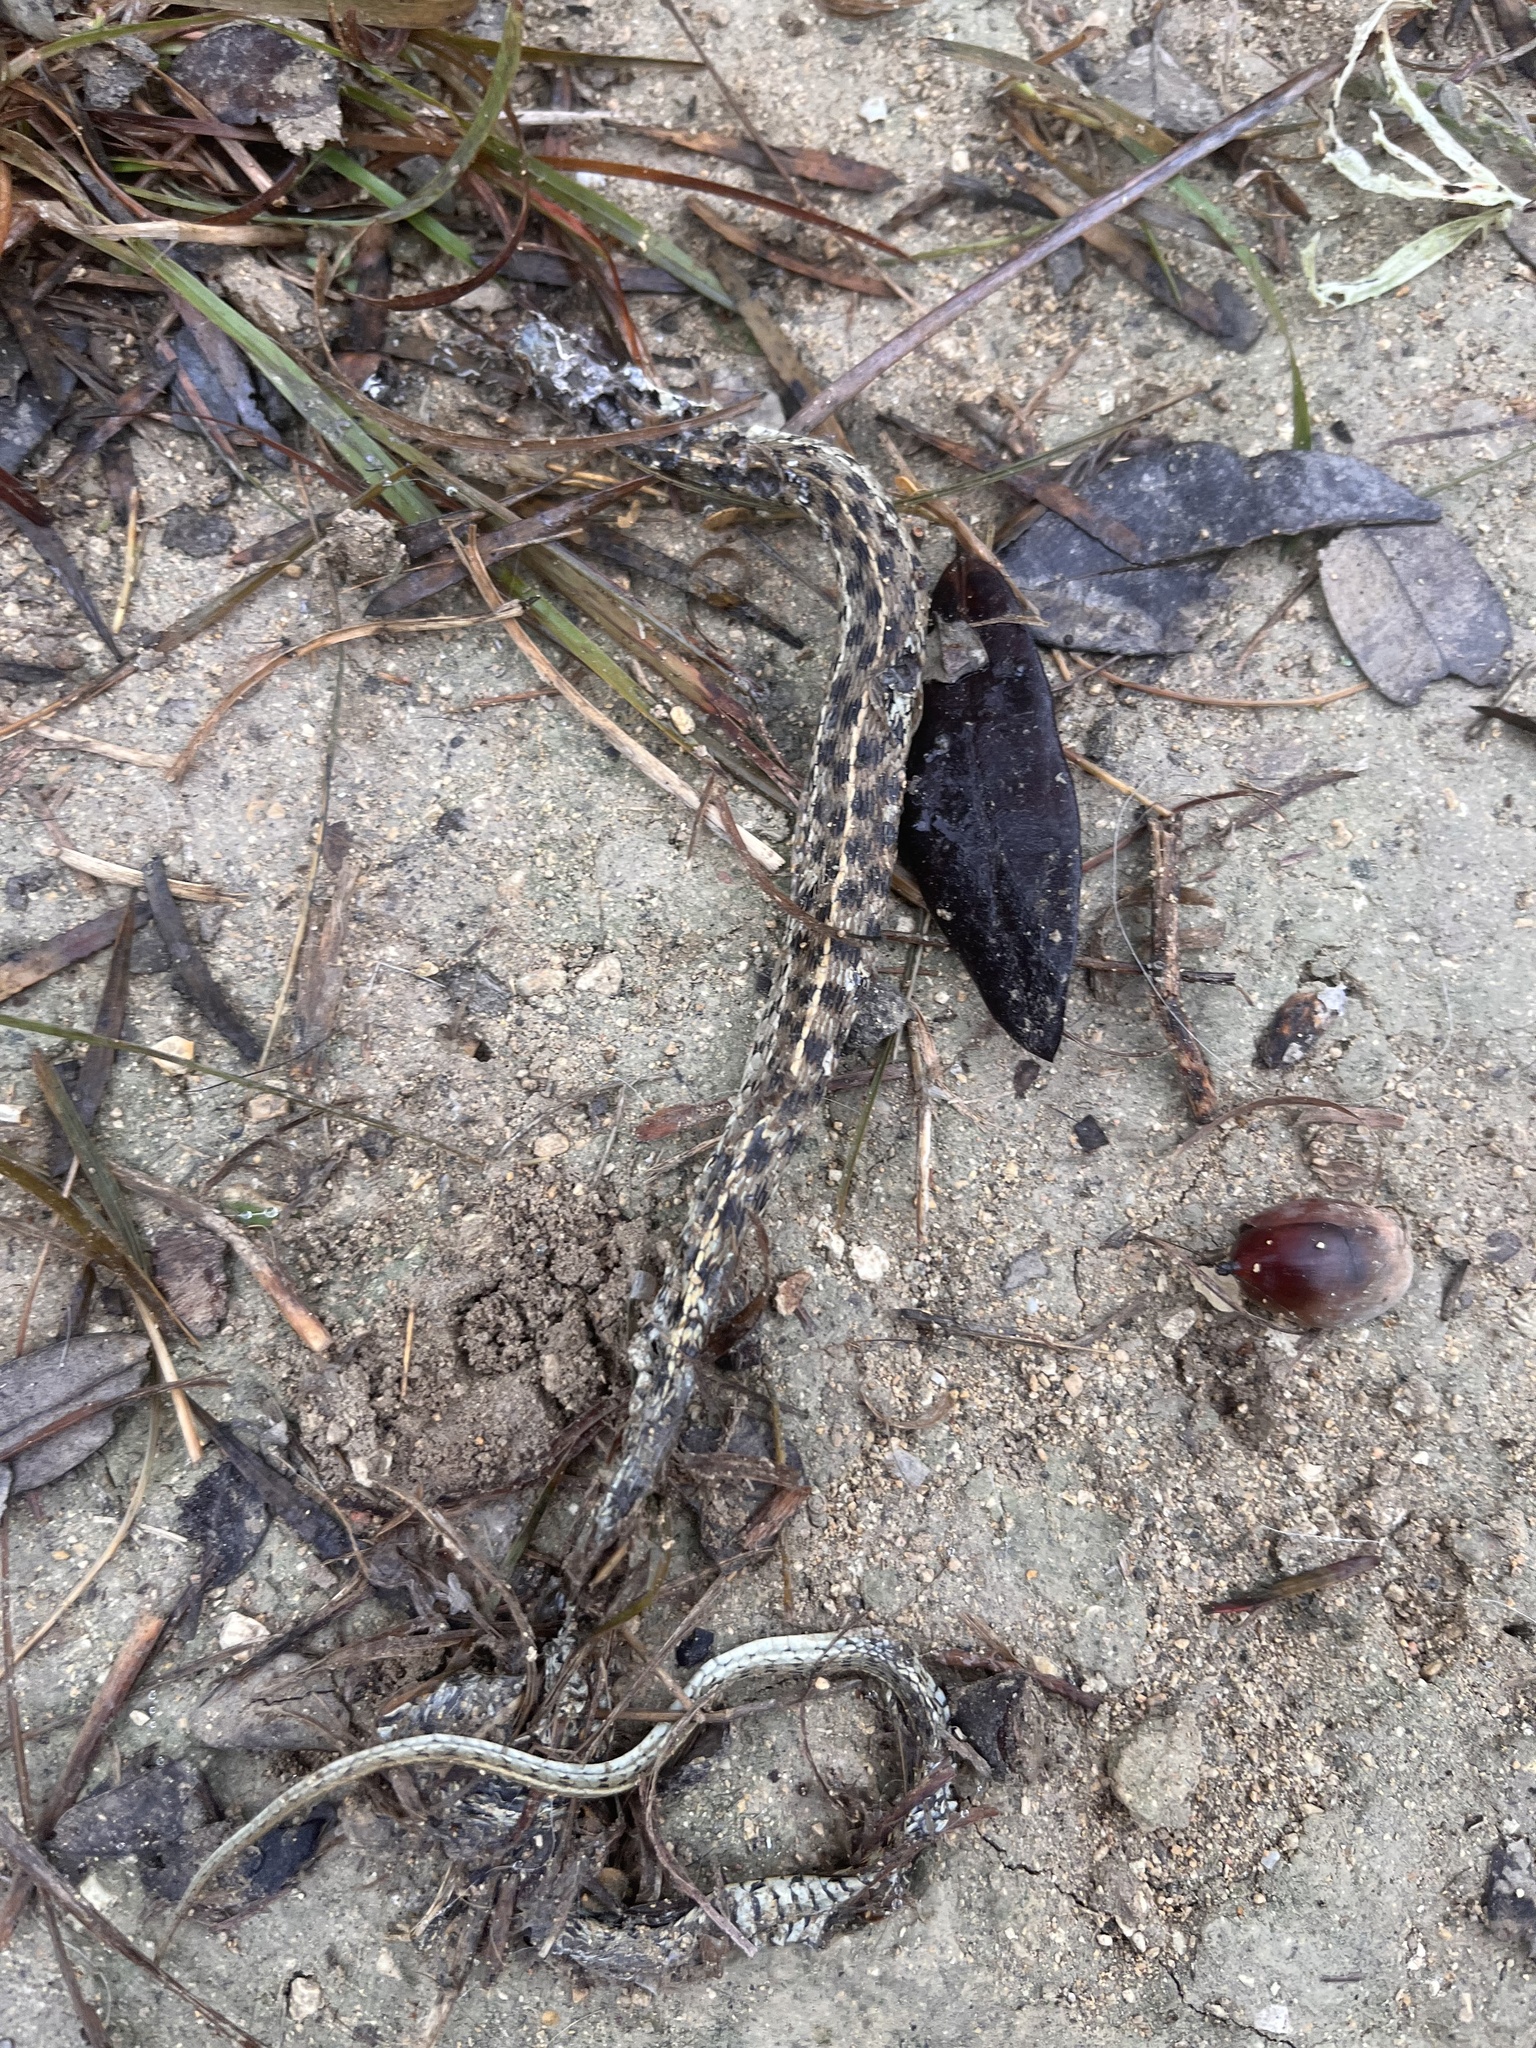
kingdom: Animalia
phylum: Chordata
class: Squamata
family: Colubridae
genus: Thamnophis
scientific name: Thamnophis marcianus
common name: Checkered garter snake
